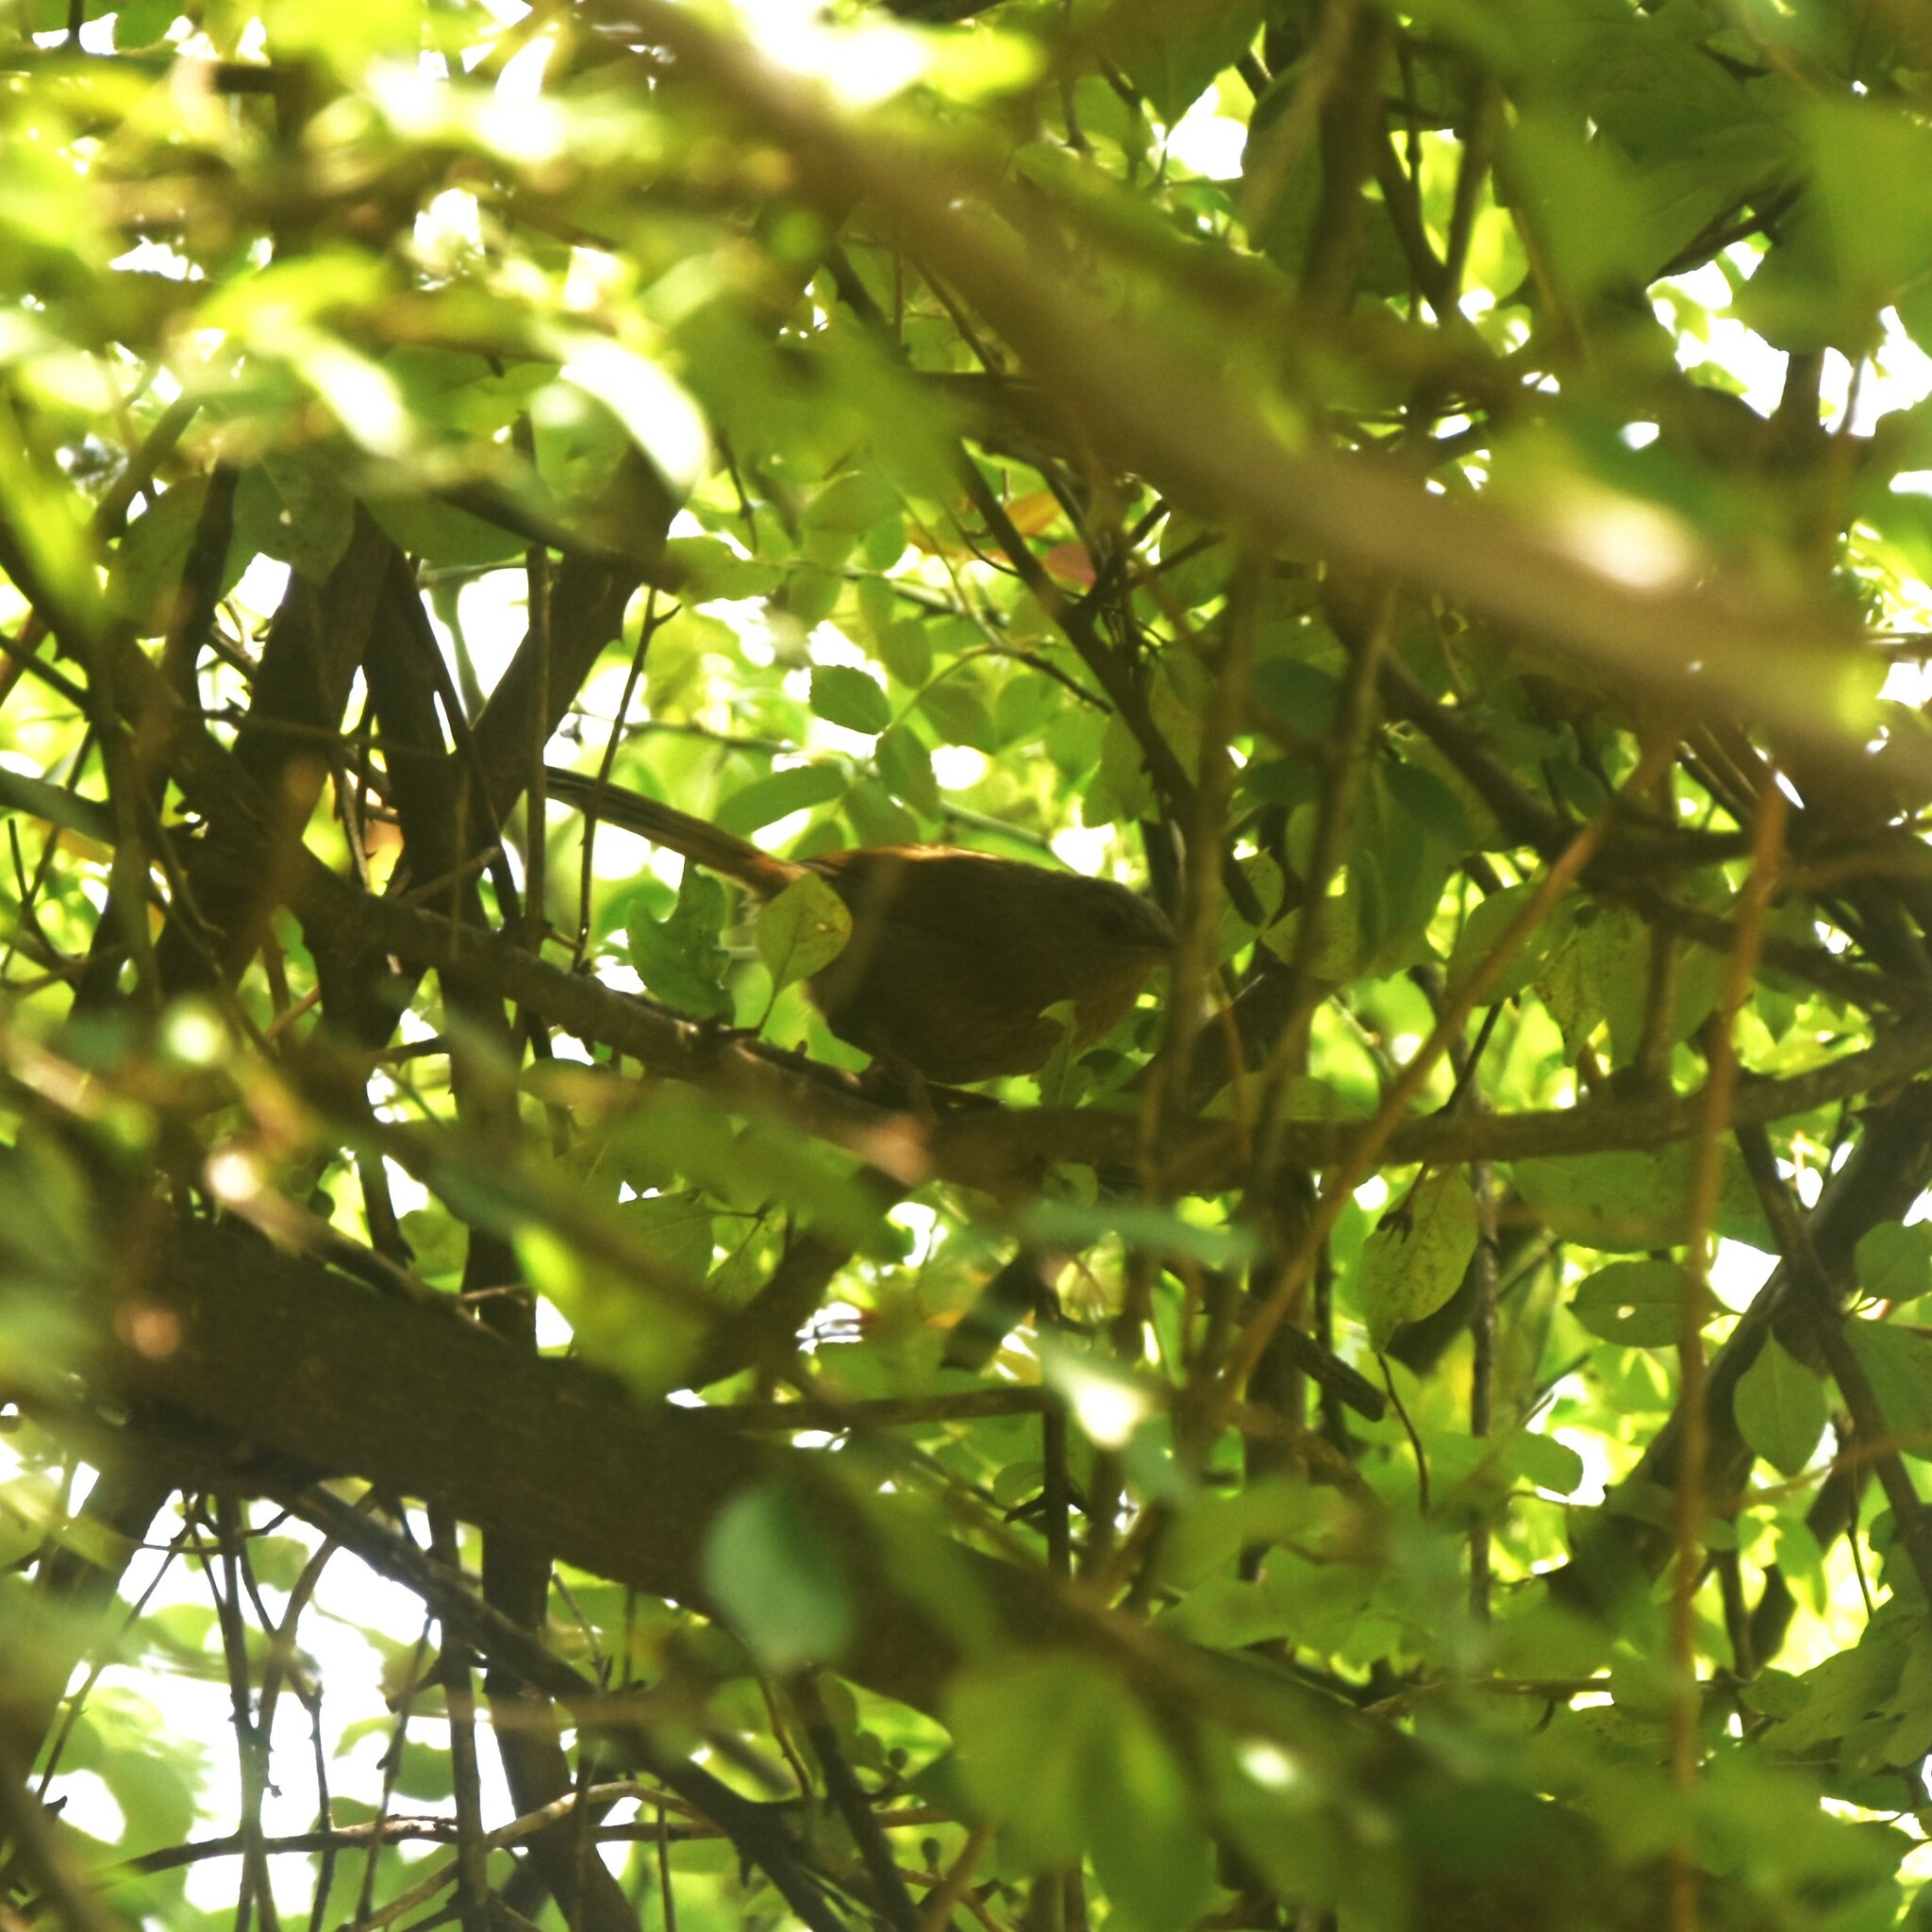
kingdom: Animalia
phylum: Chordata
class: Aves
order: Passeriformes
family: Leiothrichidae
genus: Trochalopteron
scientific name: Trochalopteron lineatum
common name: Streaked laughingthrush
